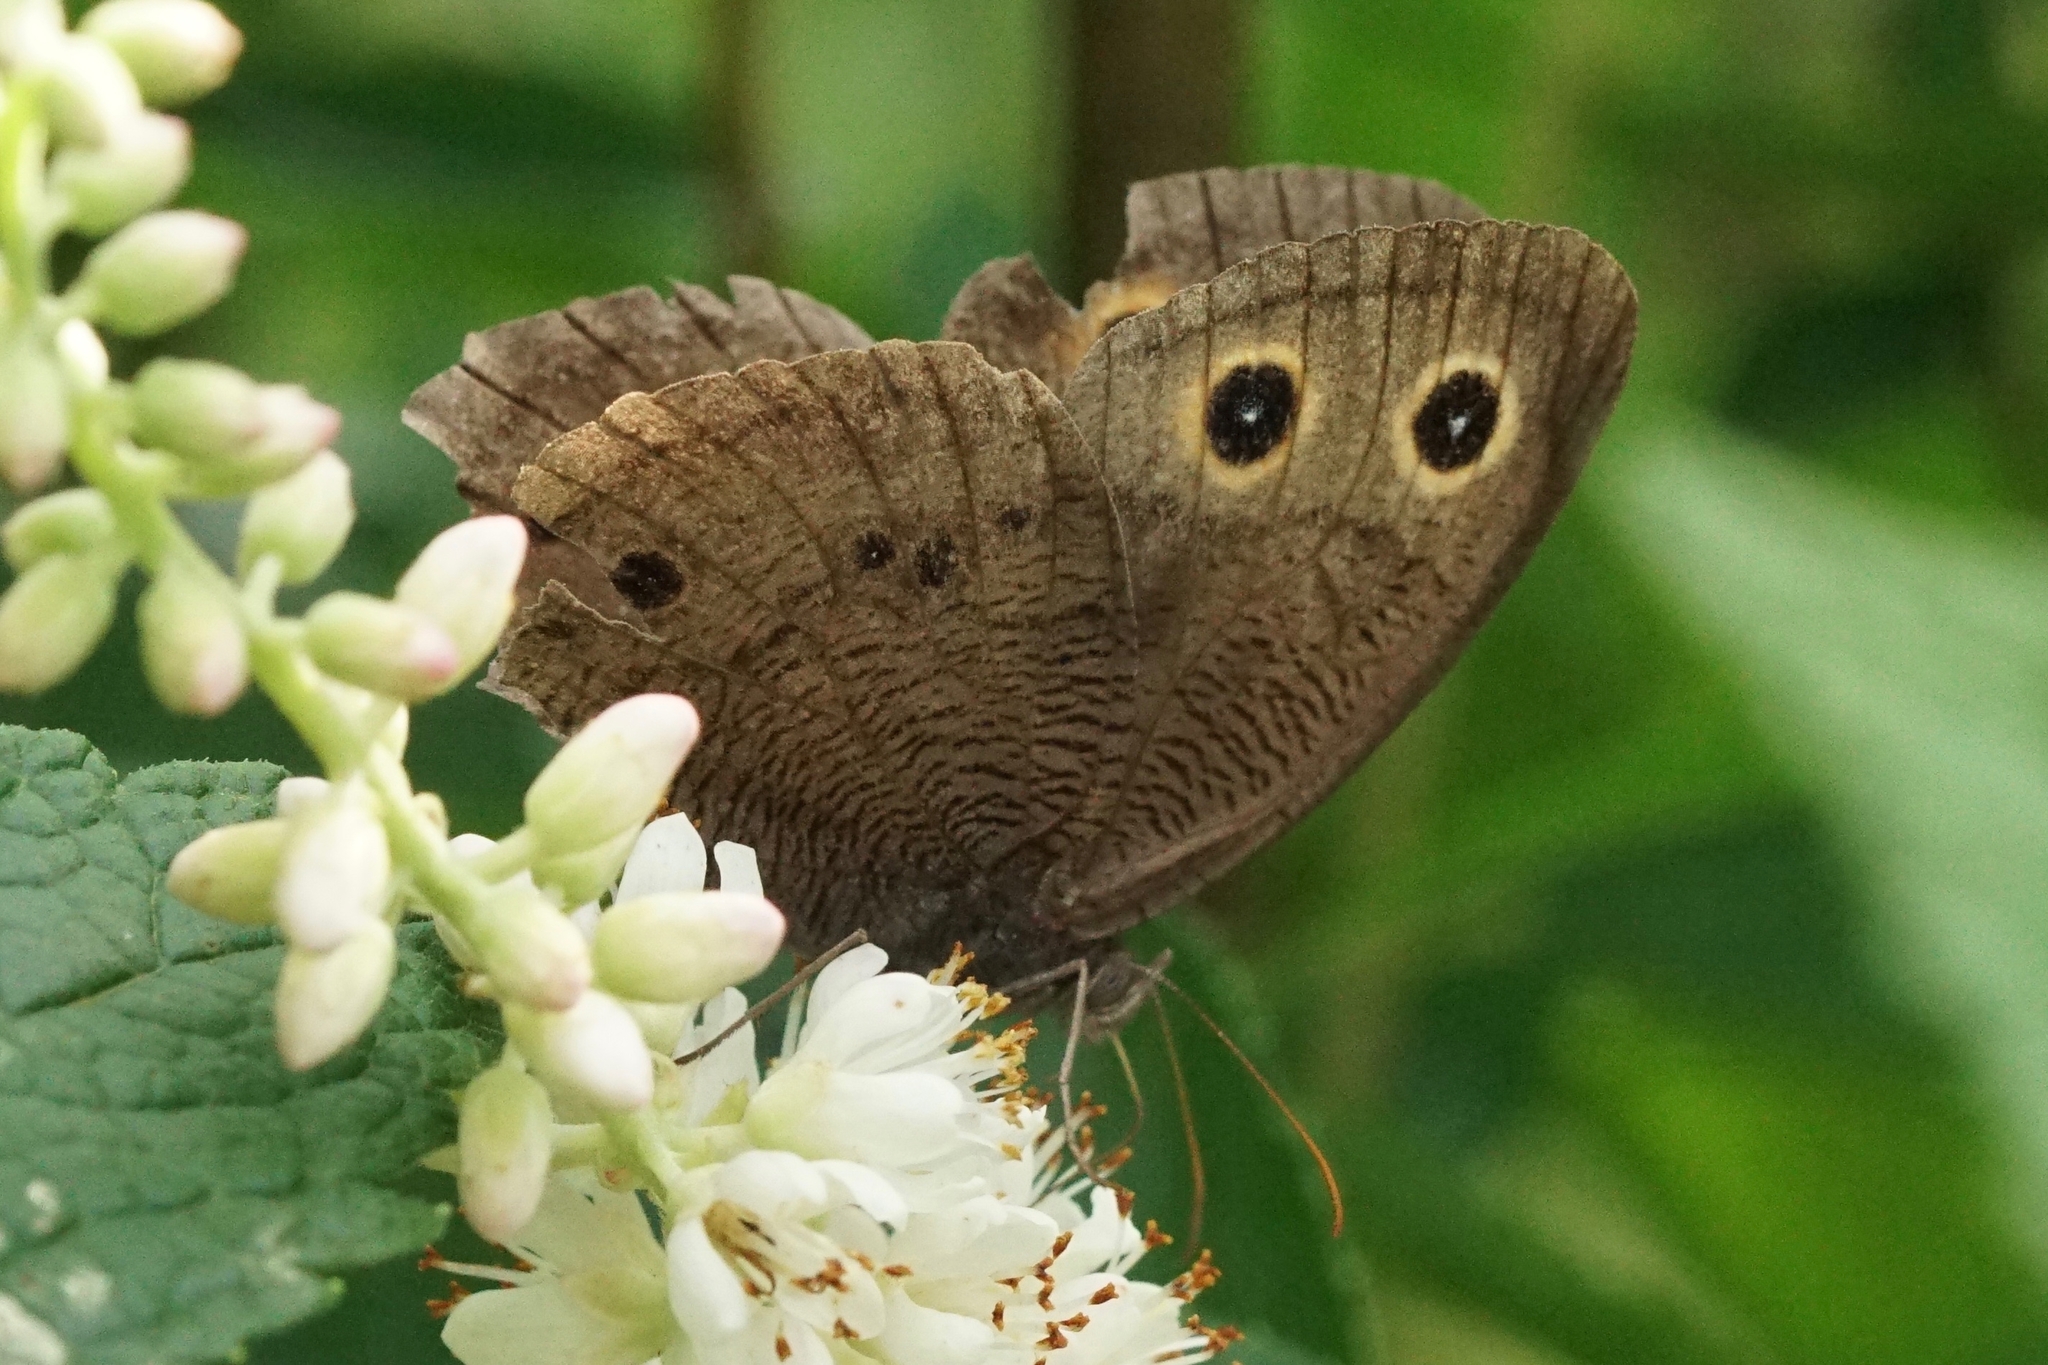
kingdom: Animalia
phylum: Arthropoda
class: Insecta
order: Lepidoptera
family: Nymphalidae
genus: Cercyonis
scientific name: Cercyonis pegala
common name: Common wood-nymph
